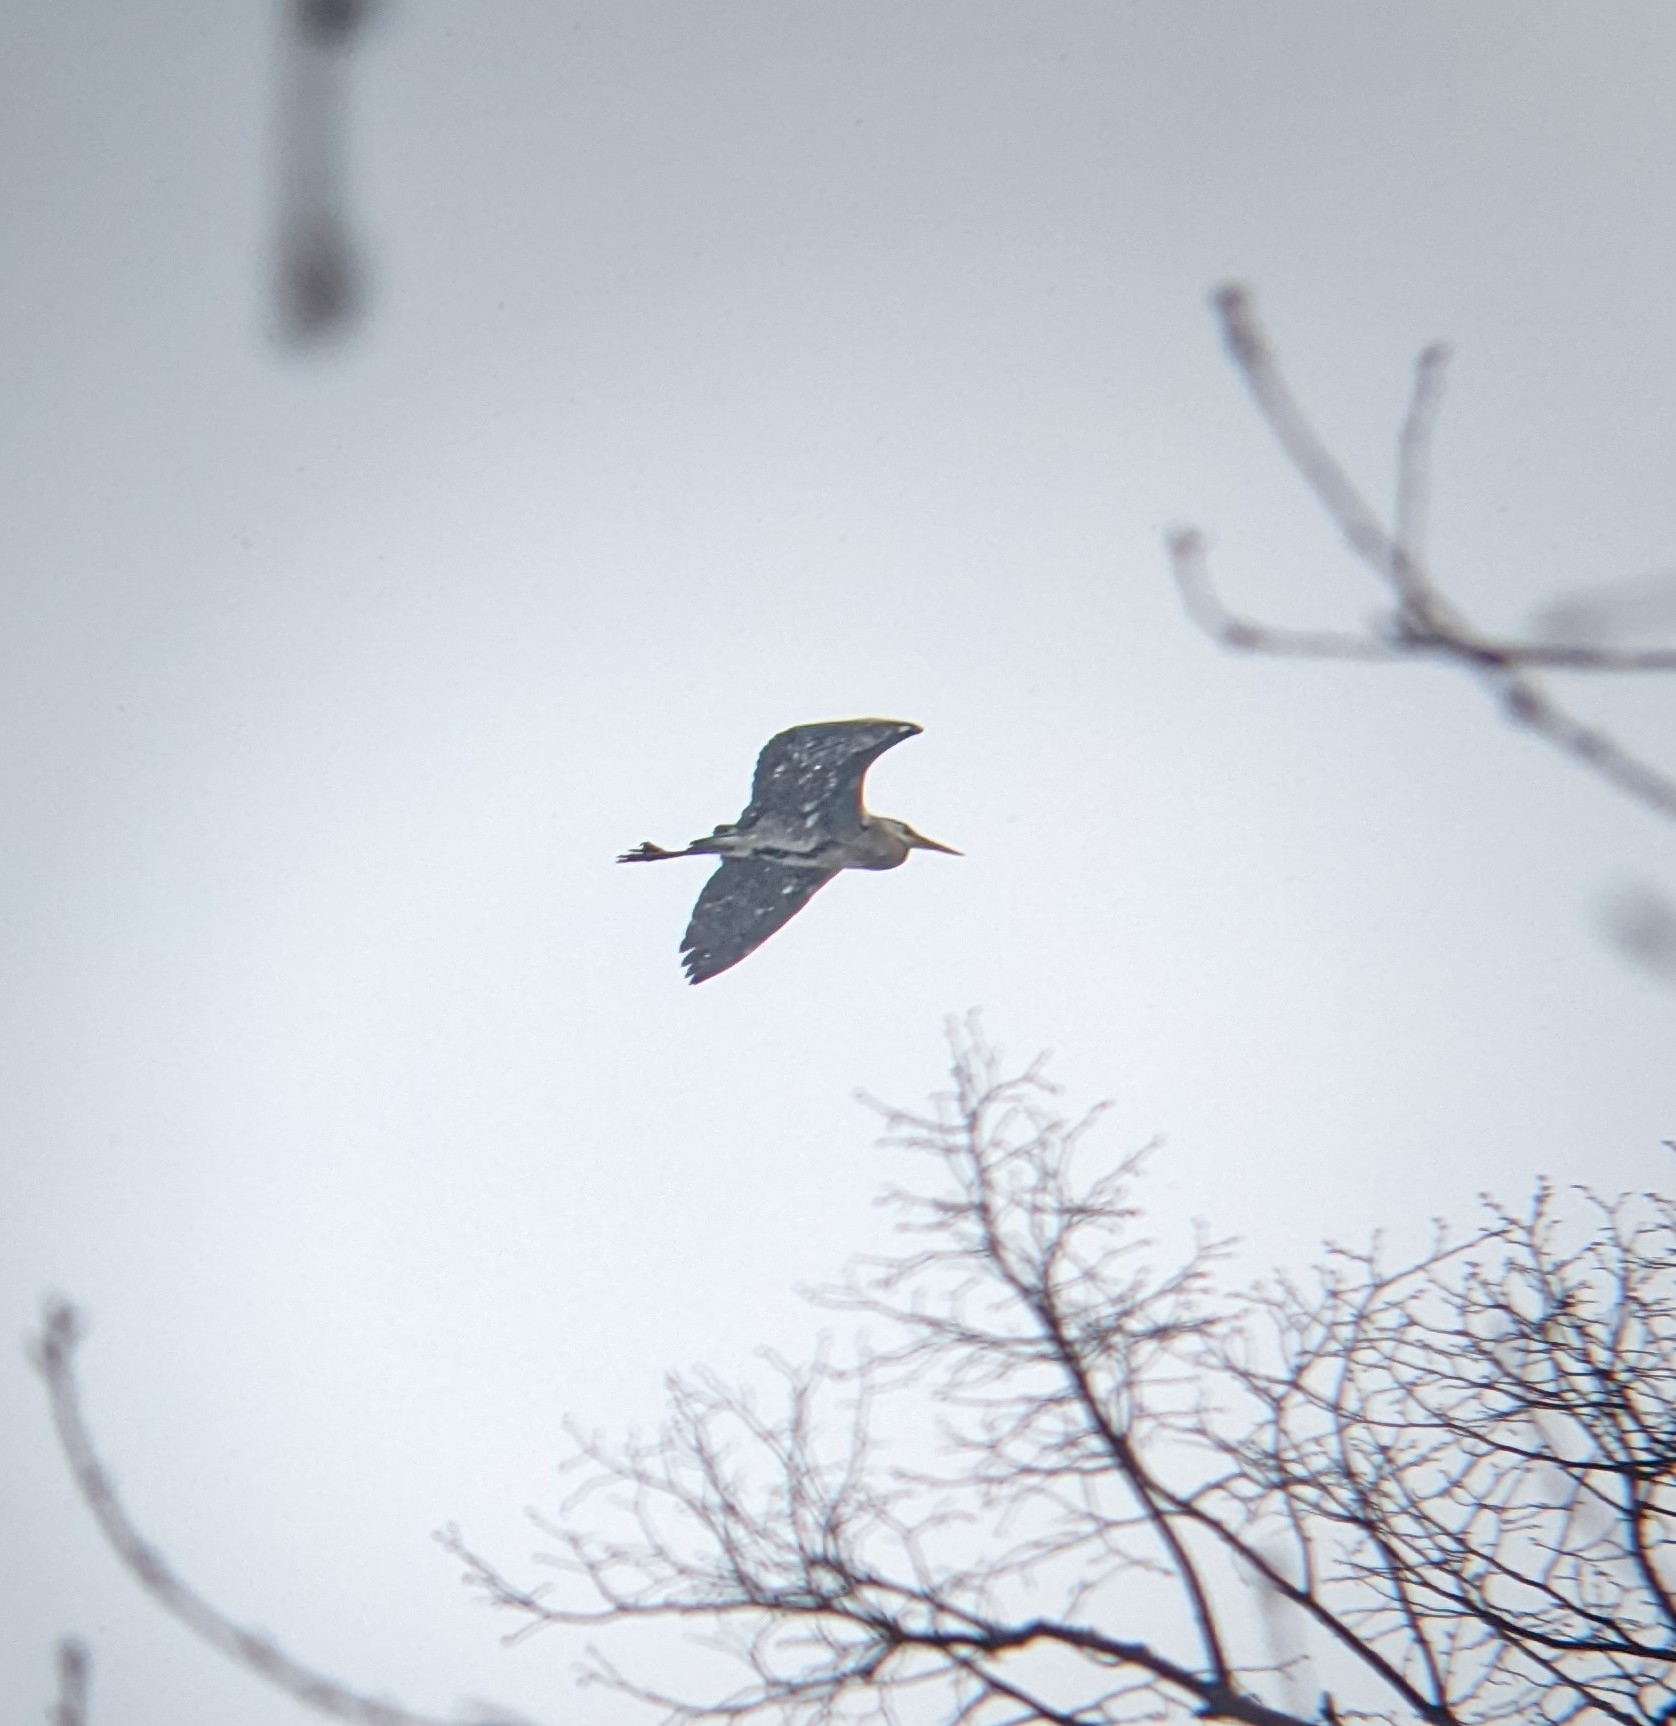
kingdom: Animalia
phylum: Chordata
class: Aves
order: Pelecaniformes
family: Ardeidae
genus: Ardea
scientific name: Ardea cinerea
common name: Grey heron
